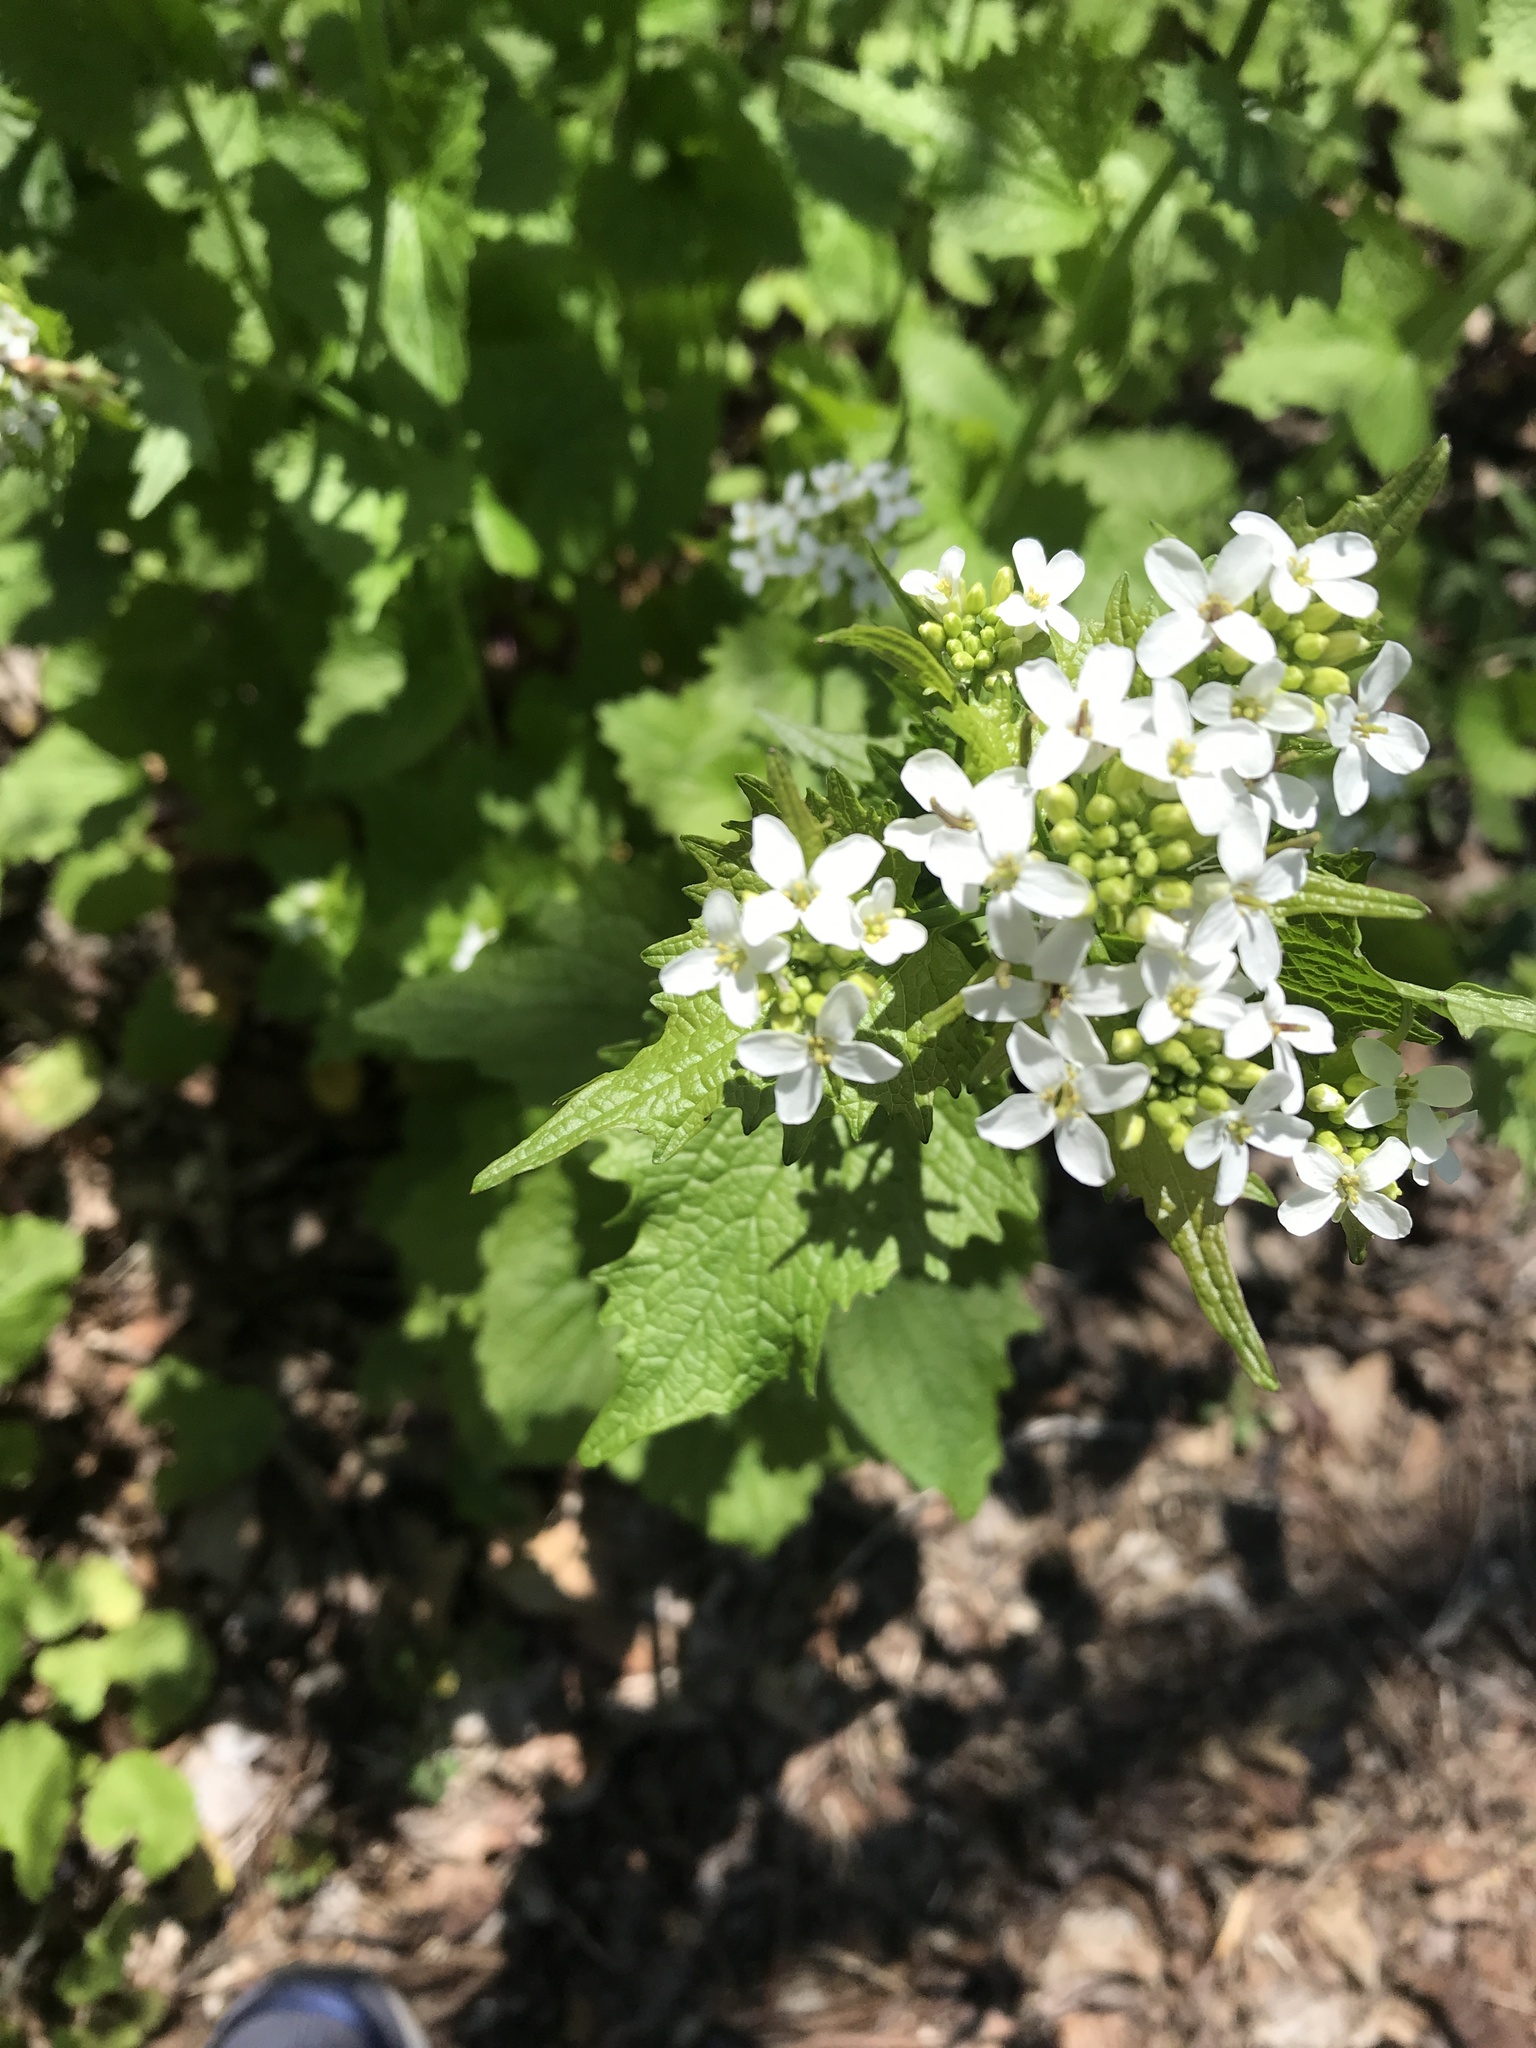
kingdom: Plantae
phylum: Tracheophyta
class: Magnoliopsida
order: Brassicales
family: Brassicaceae
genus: Alliaria
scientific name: Alliaria petiolata
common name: Garlic mustard
